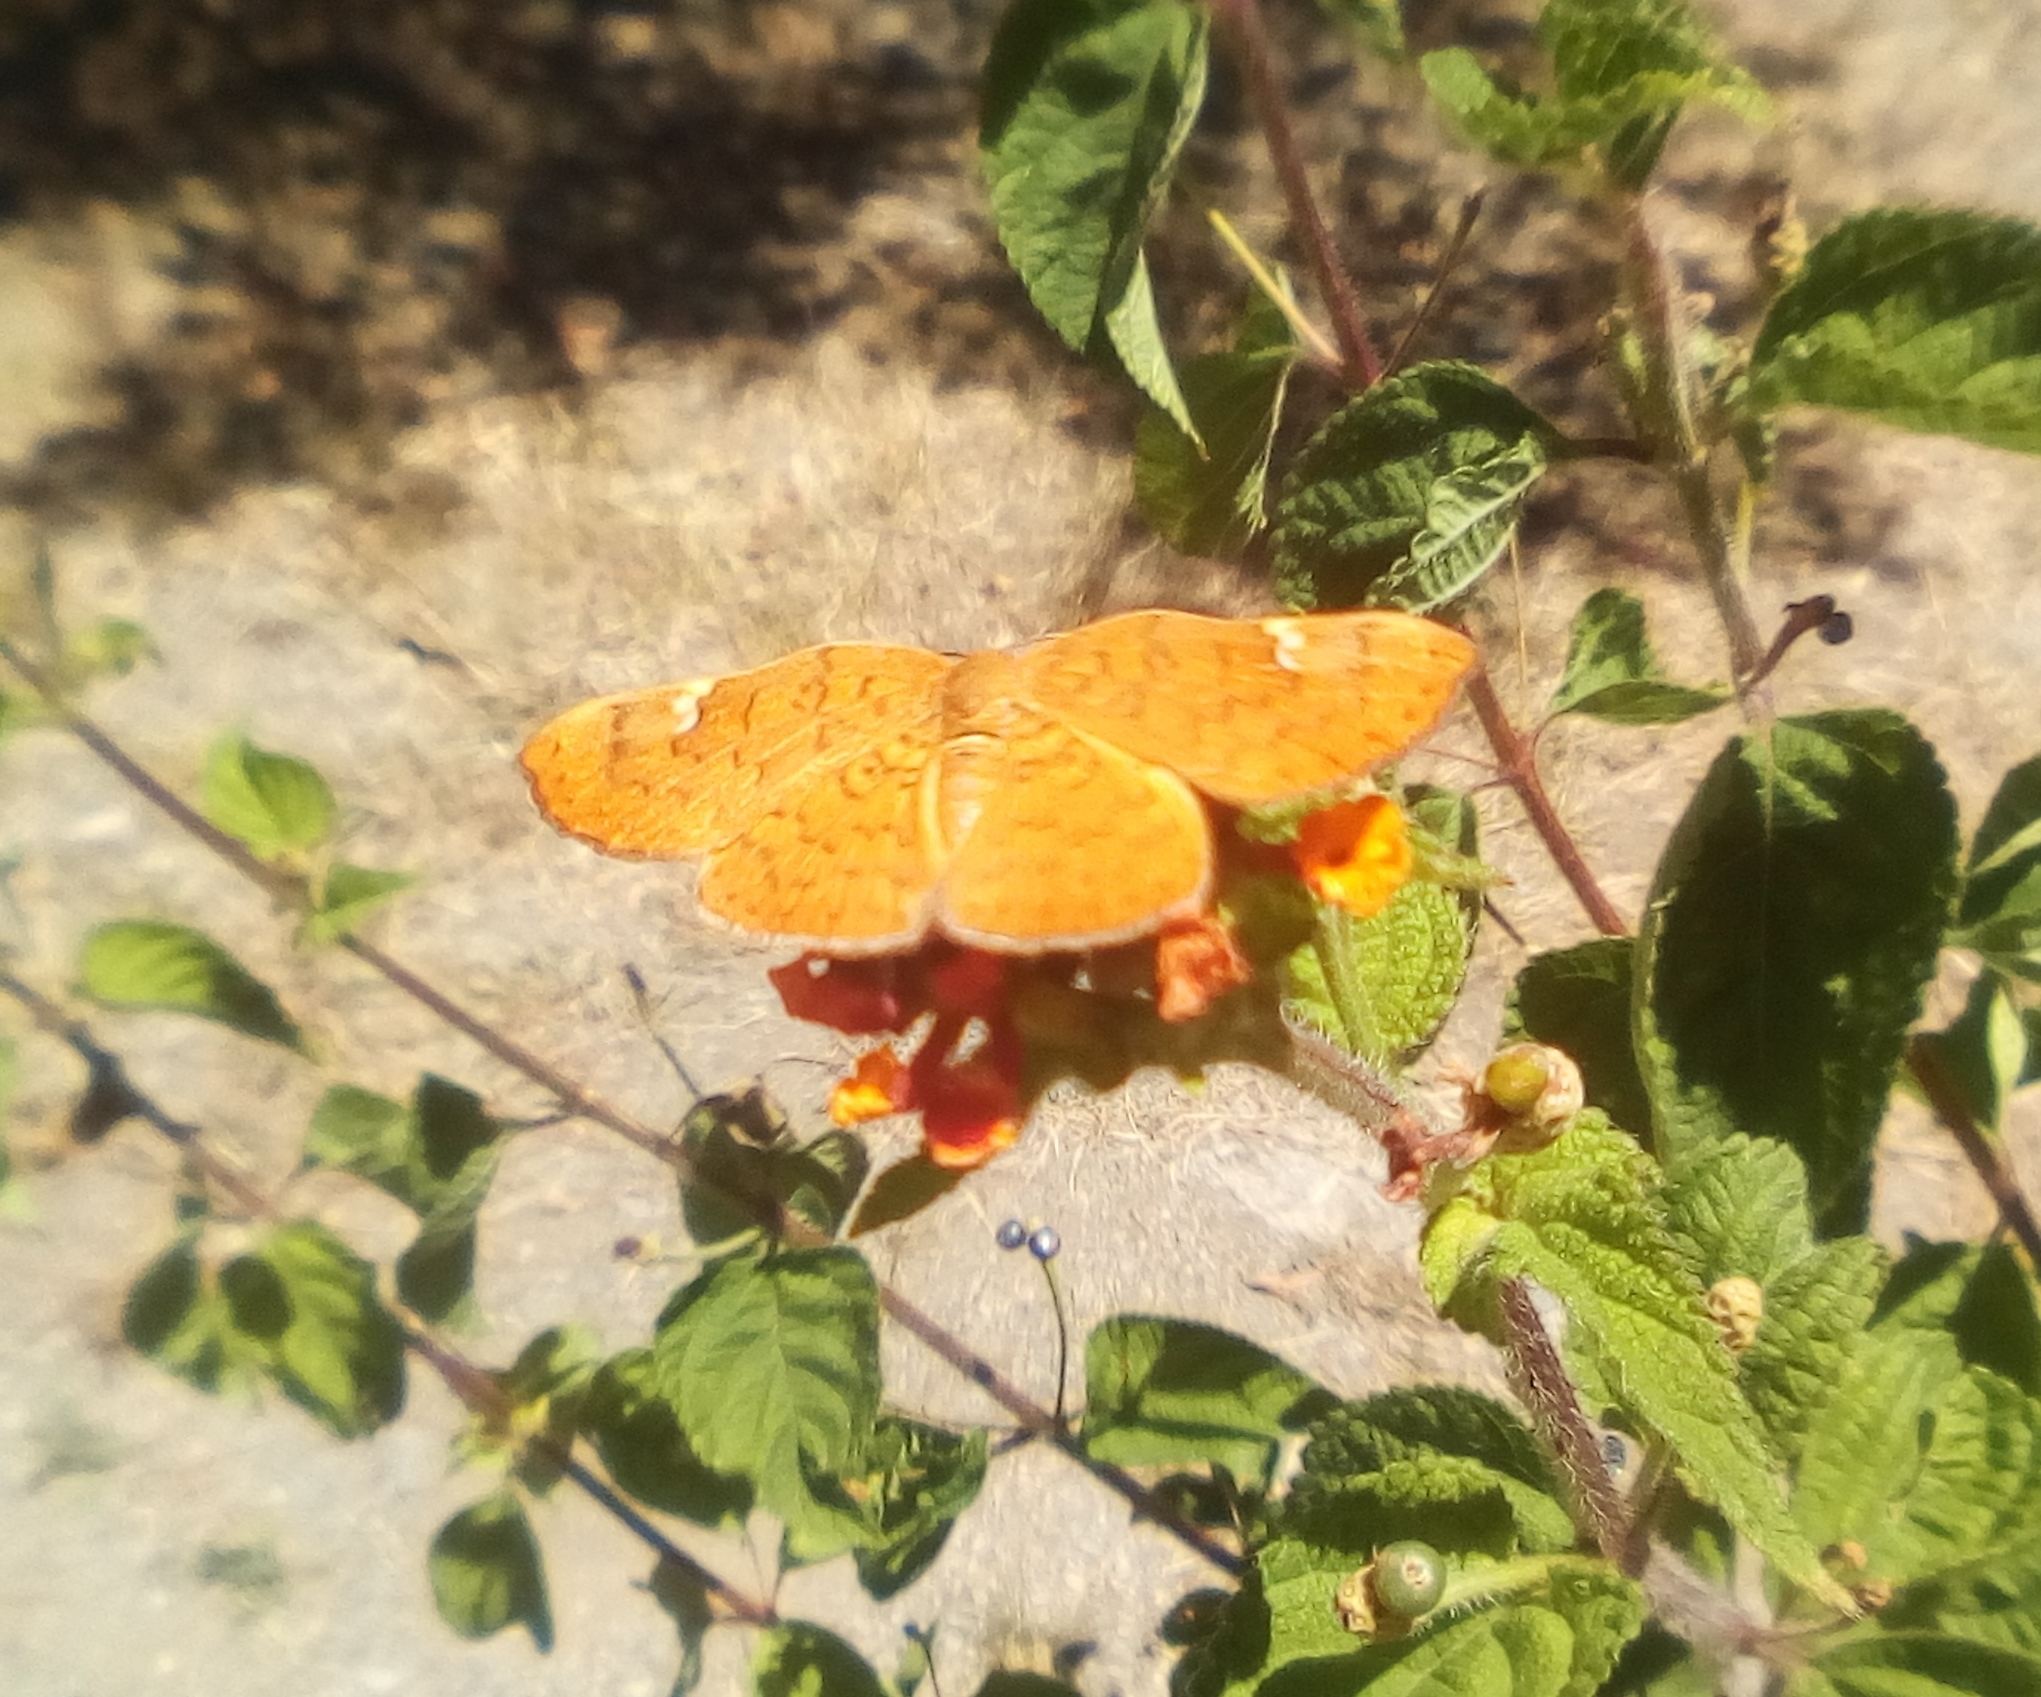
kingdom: Animalia
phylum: Arthropoda
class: Insecta
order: Lepidoptera
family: Riodinidae
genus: Curvie
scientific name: Curvie emesia
